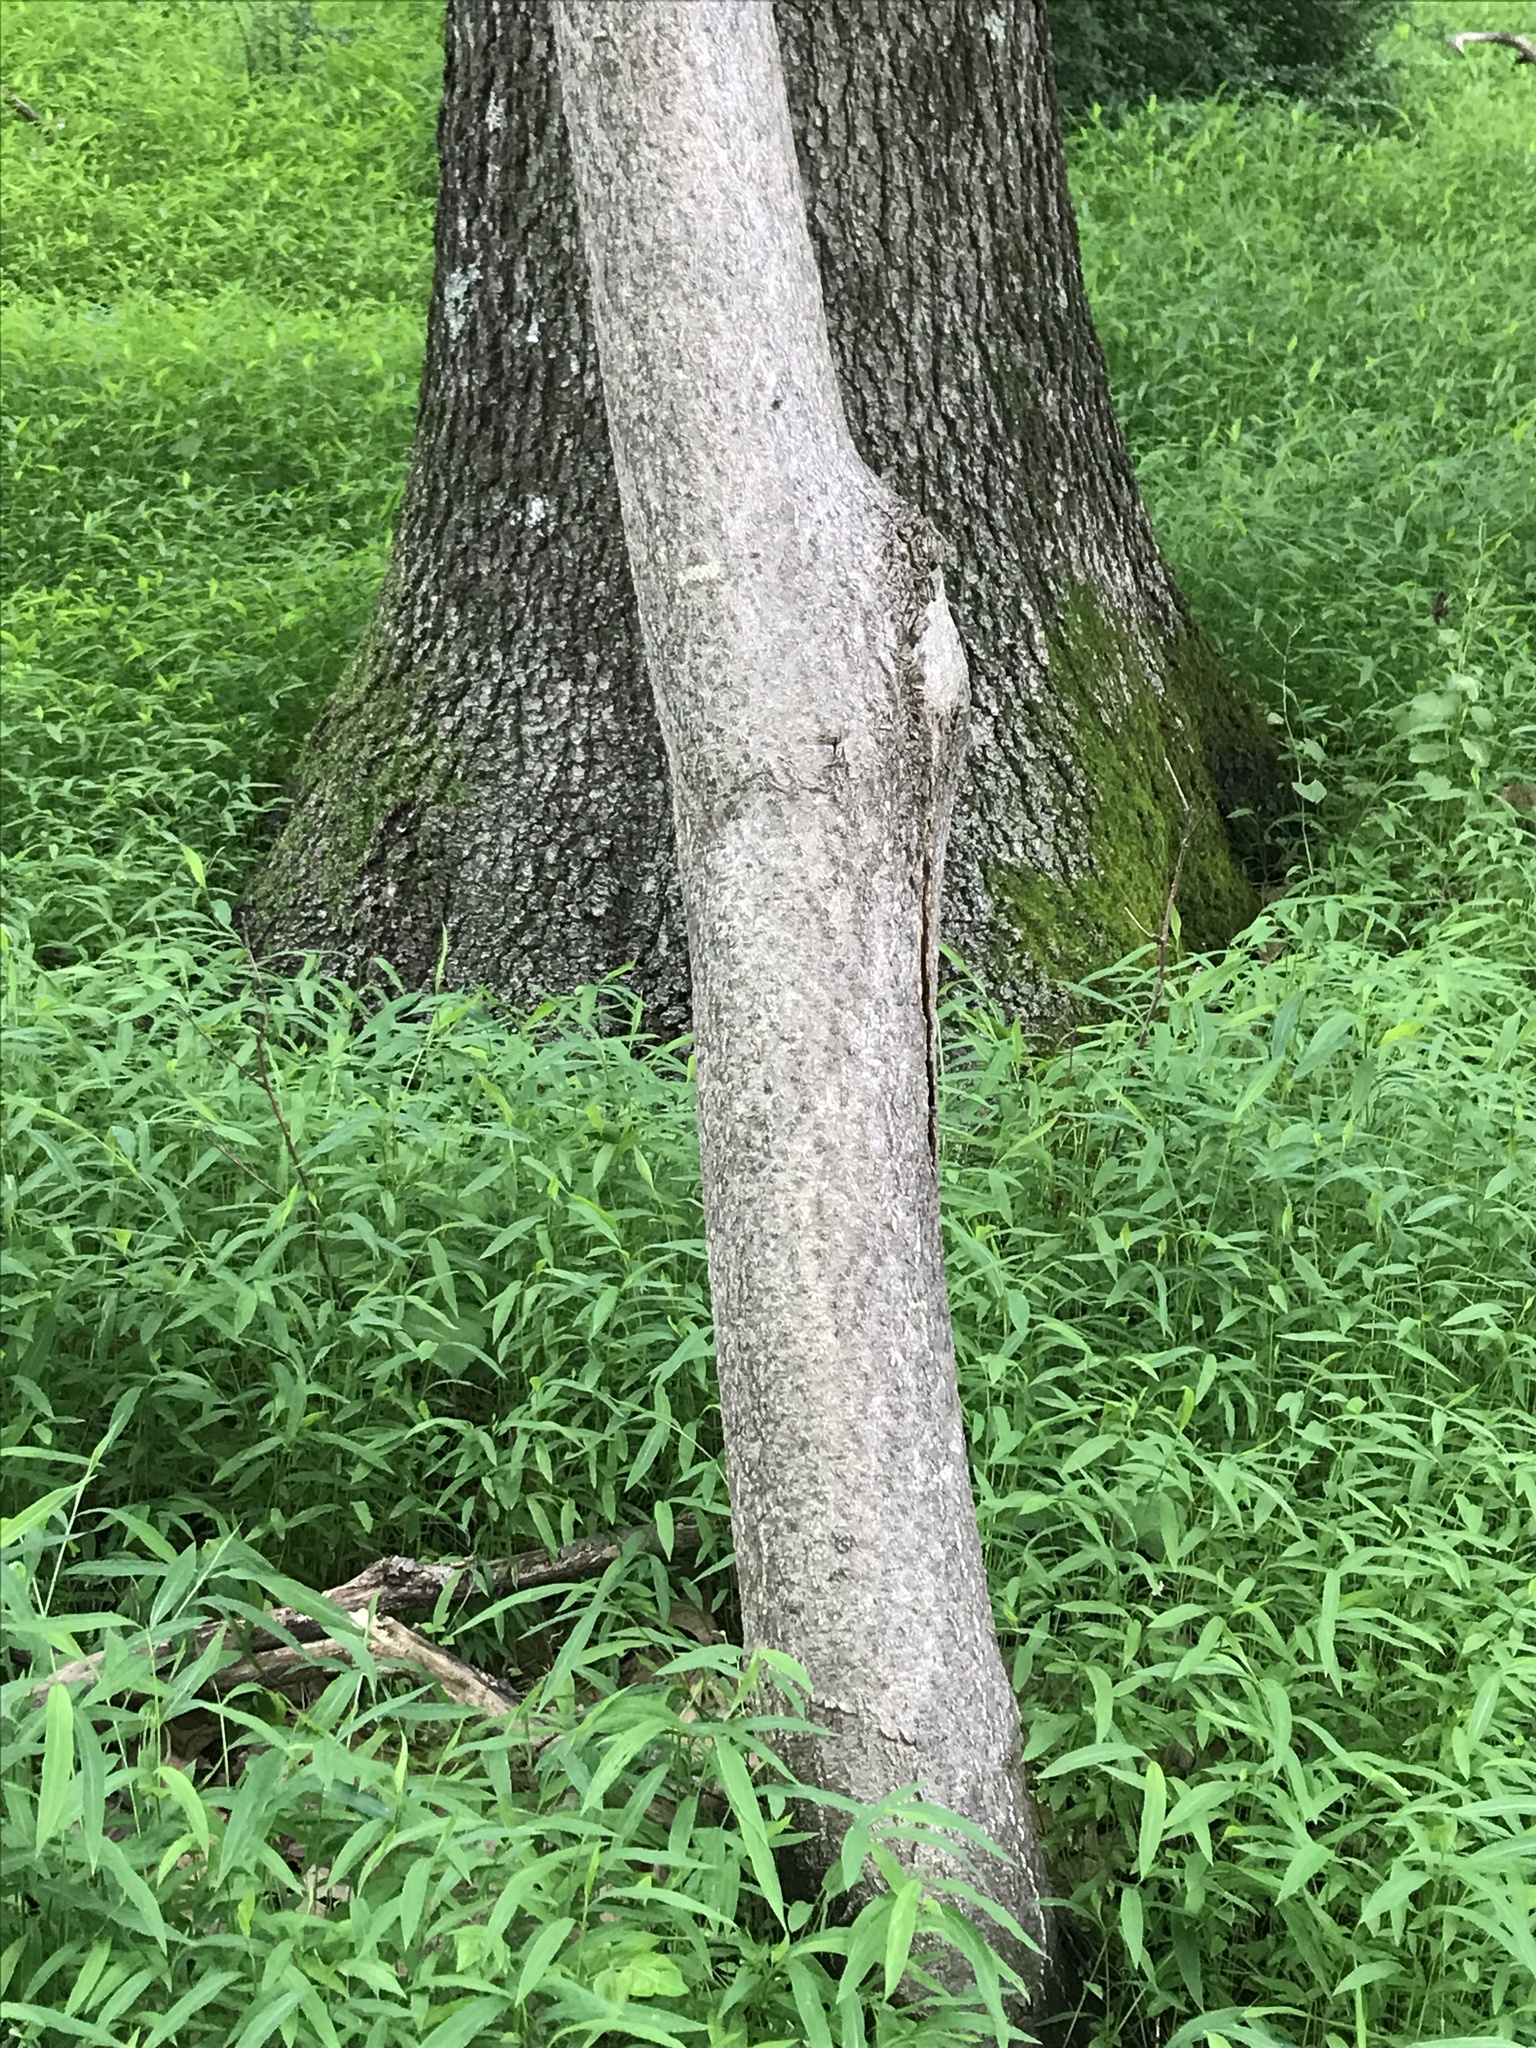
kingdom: Plantae
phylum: Tracheophyta
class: Magnoliopsida
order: Sapindales
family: Simaroubaceae
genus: Ailanthus
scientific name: Ailanthus altissima
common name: Tree-of-heaven
